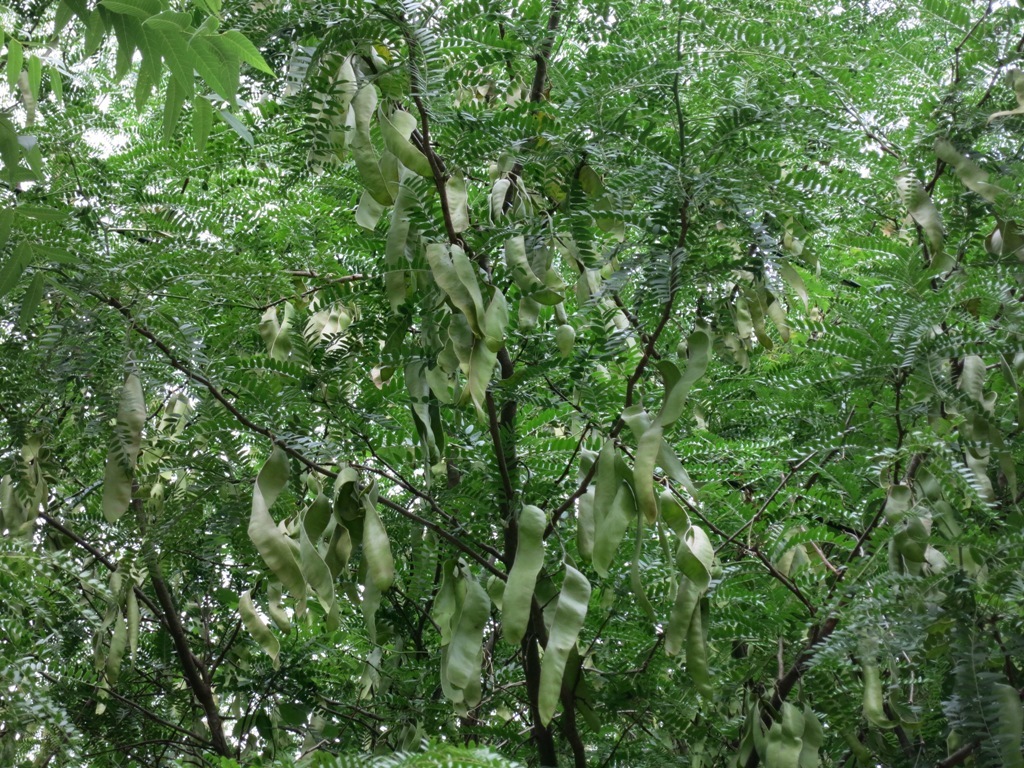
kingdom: Plantae
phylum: Tracheophyta
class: Magnoliopsida
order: Fabales
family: Fabaceae
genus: Gleditsia
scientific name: Gleditsia triacanthos
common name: Common honeylocust
